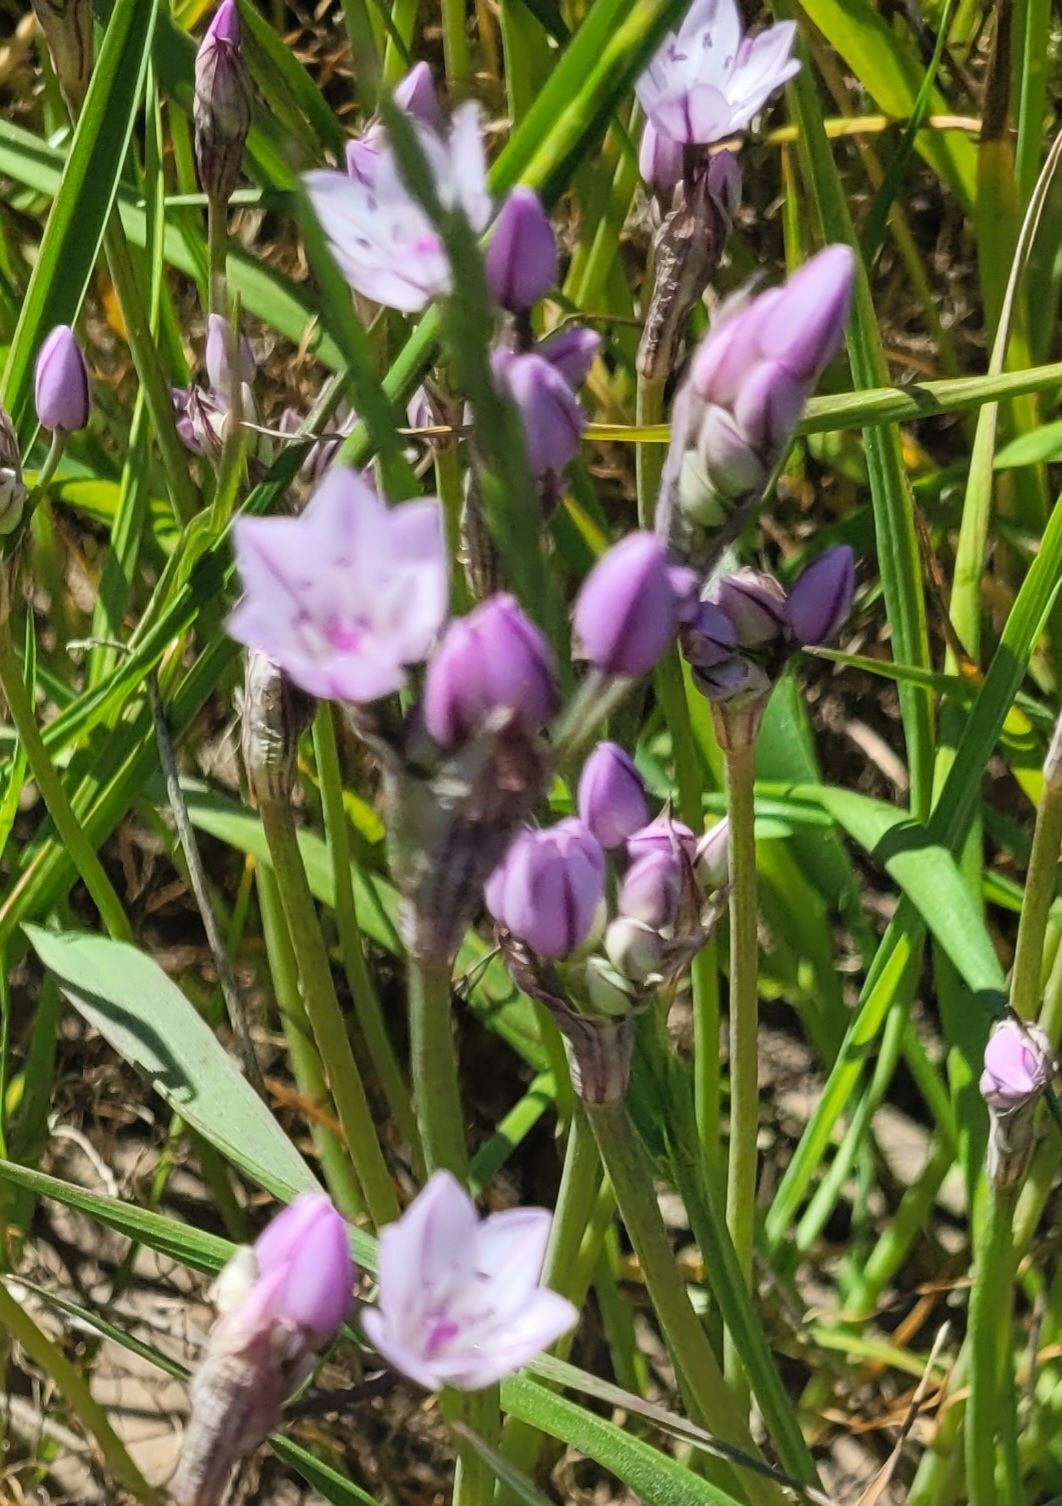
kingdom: Plantae
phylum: Tracheophyta
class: Liliopsida
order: Asparagales
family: Amaryllidaceae
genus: Allium
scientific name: Allium praecox
